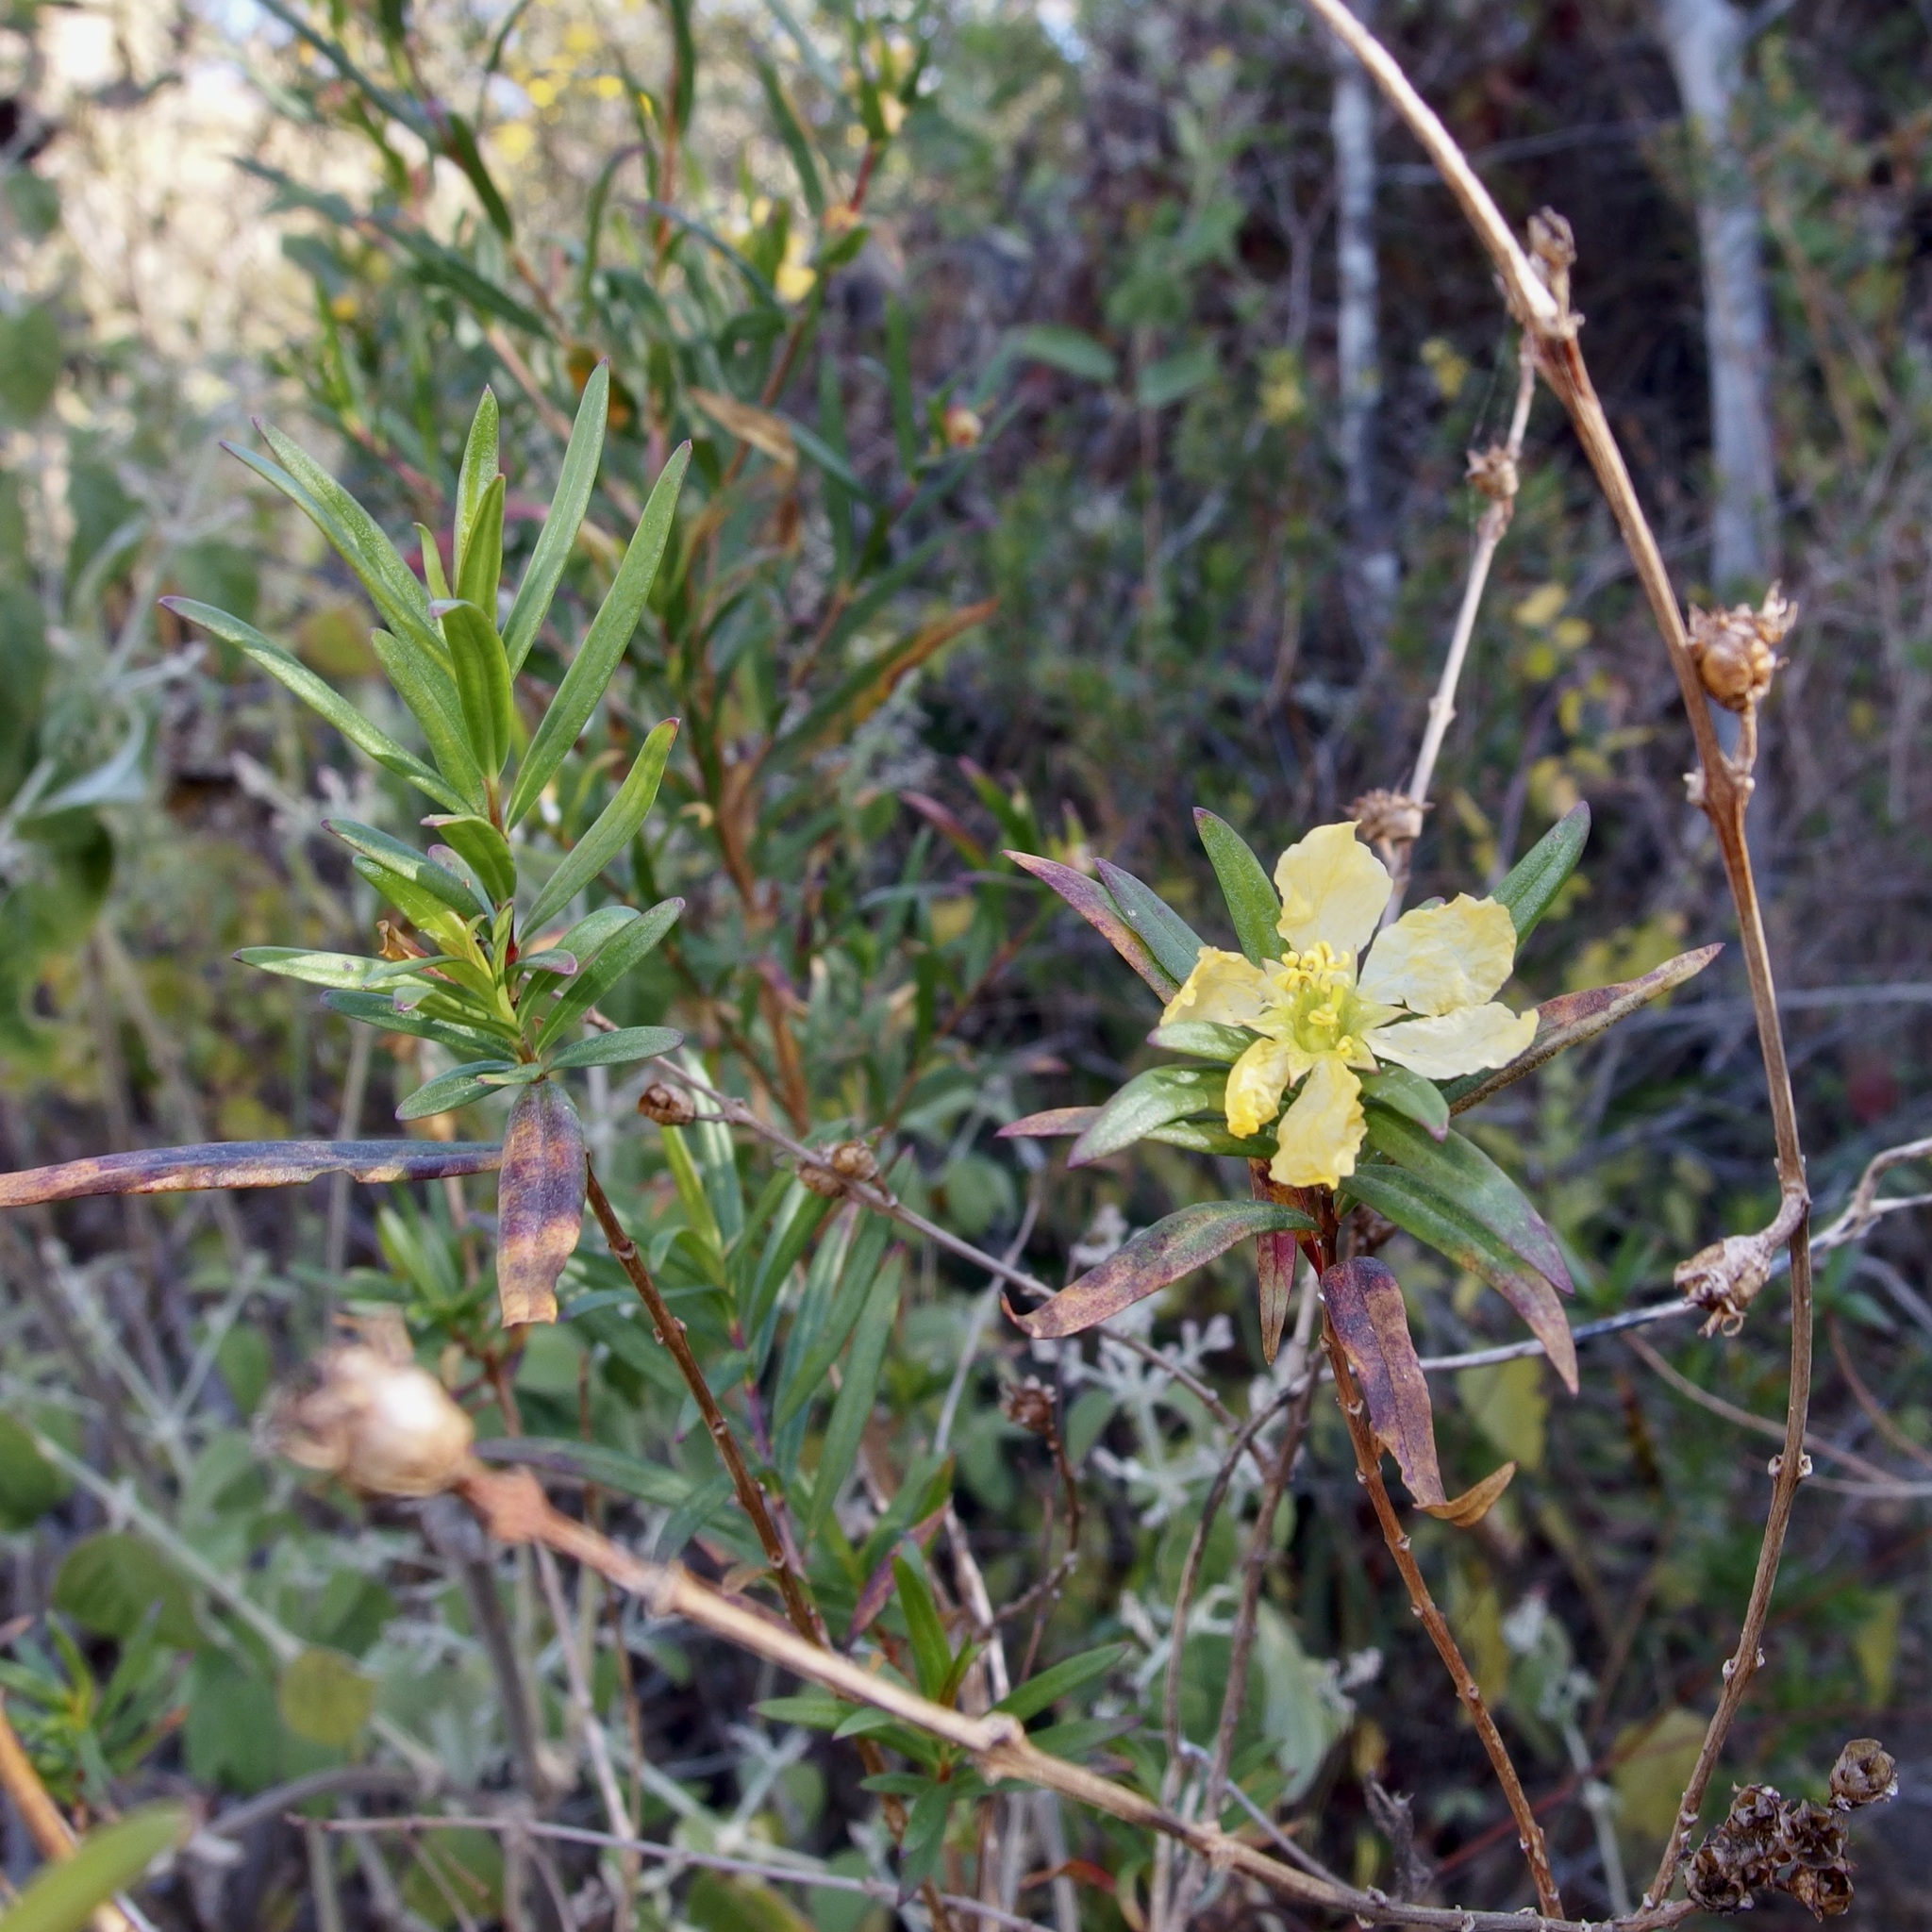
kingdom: Plantae
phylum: Tracheophyta
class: Magnoliopsida
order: Myrtales
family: Lythraceae
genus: Heimia
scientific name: Heimia salicifolia
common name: Willow-leaf heimia
